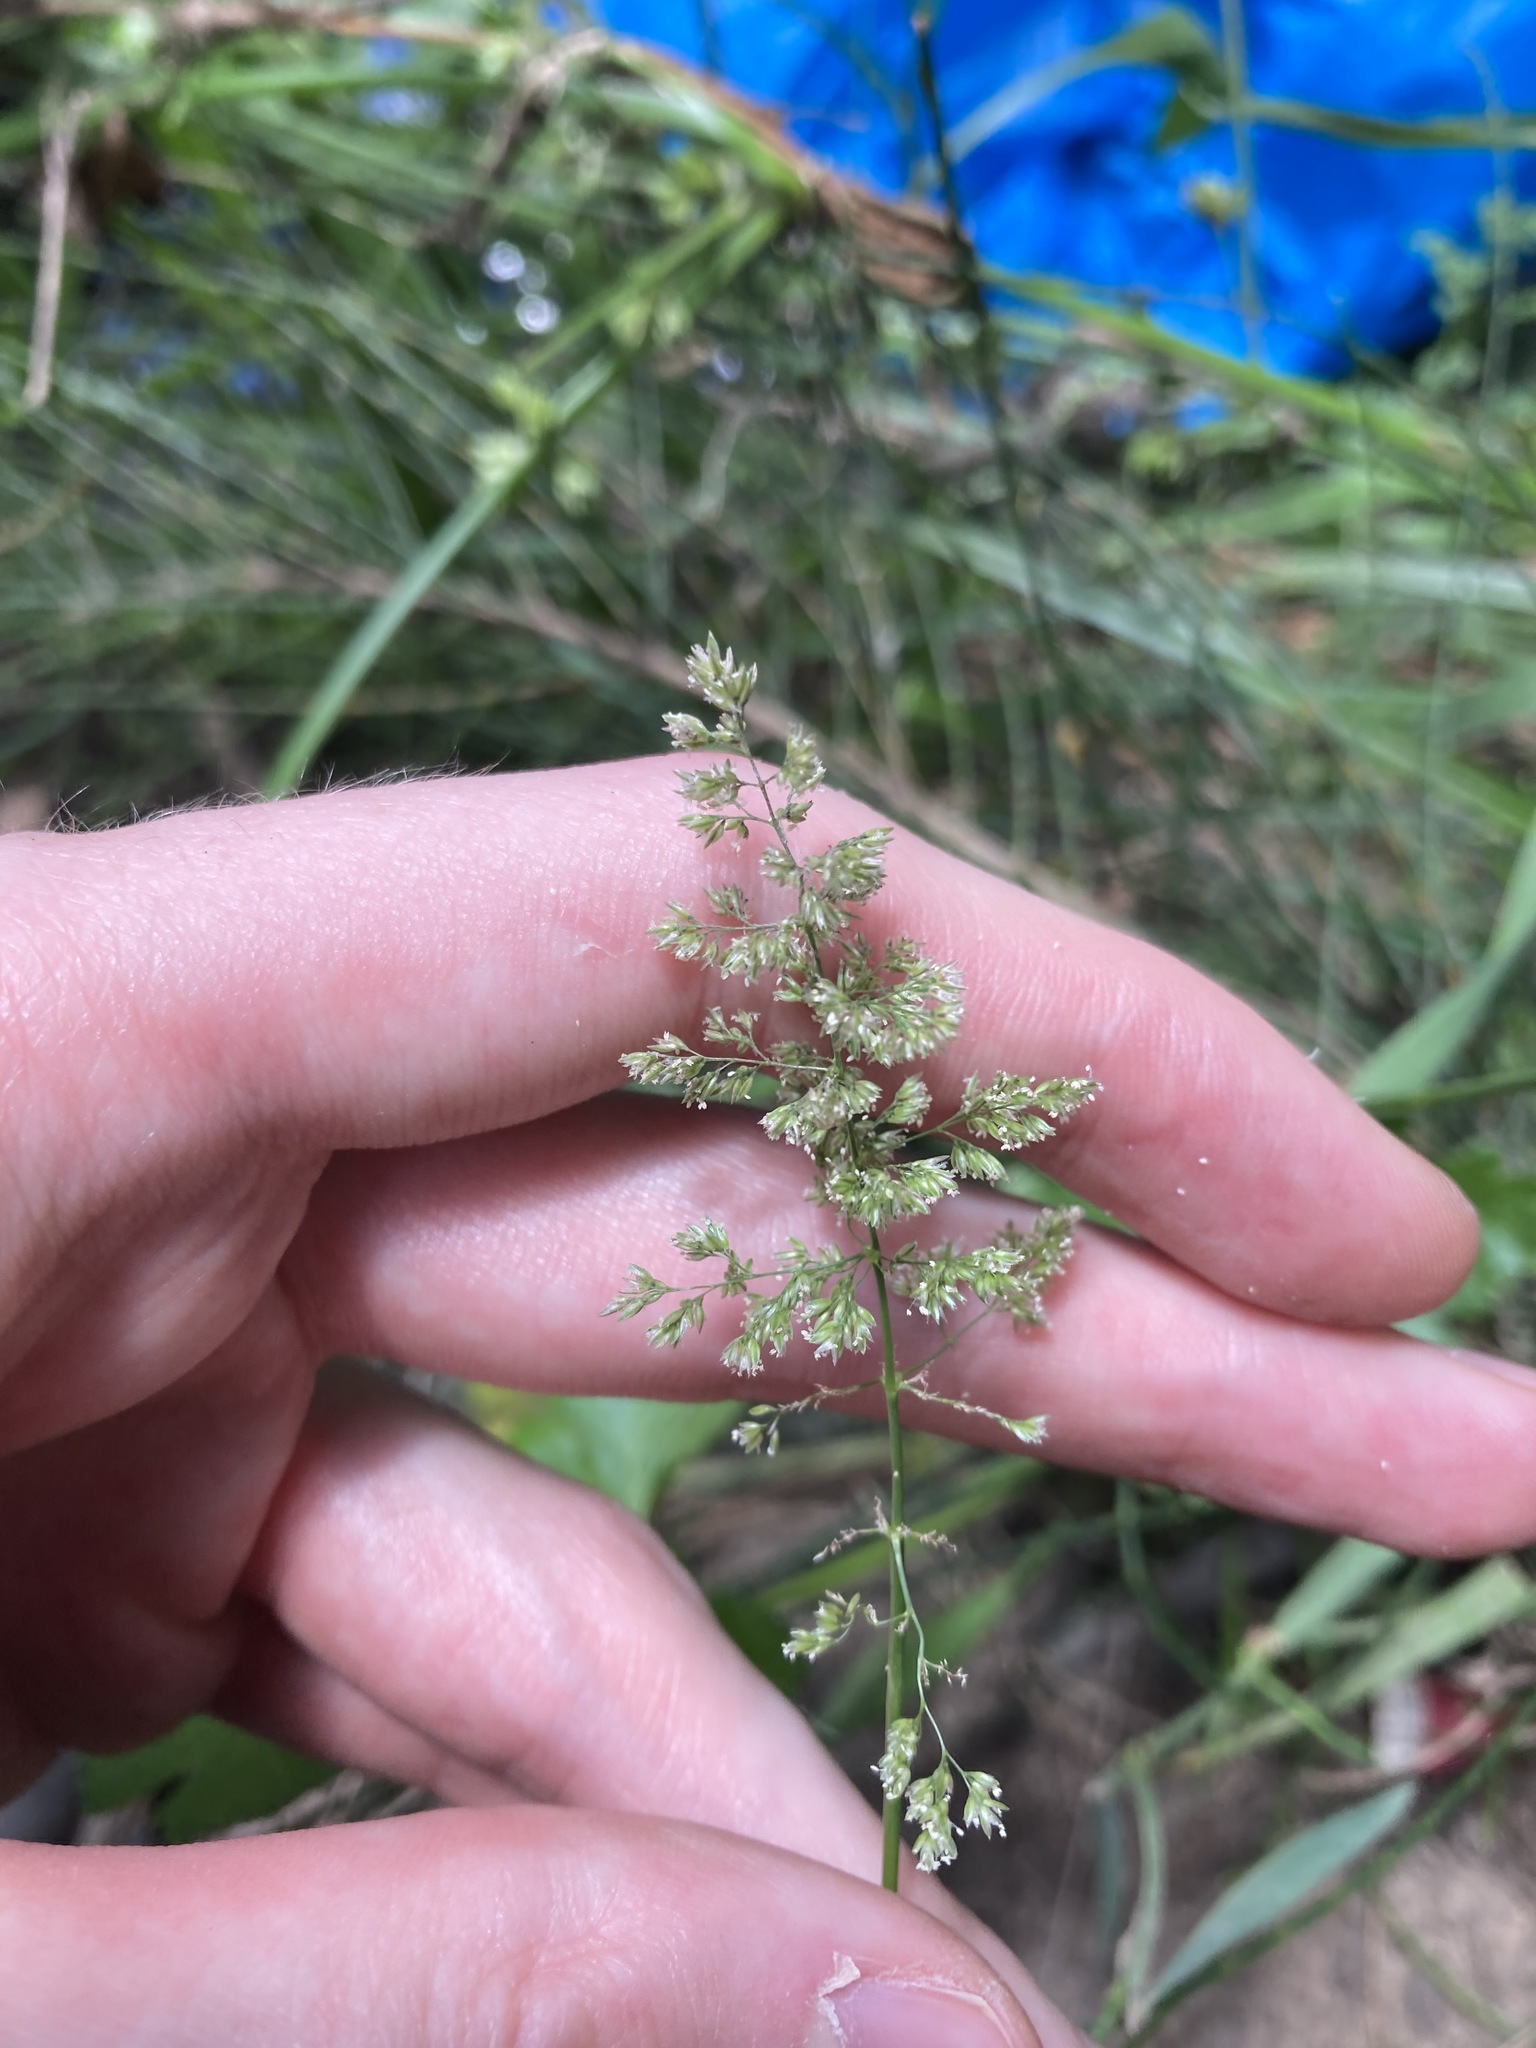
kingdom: Plantae
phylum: Tracheophyta
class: Liliopsida
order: Poales
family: Poaceae
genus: Polypogon
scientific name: Polypogon viridis
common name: Water bent
